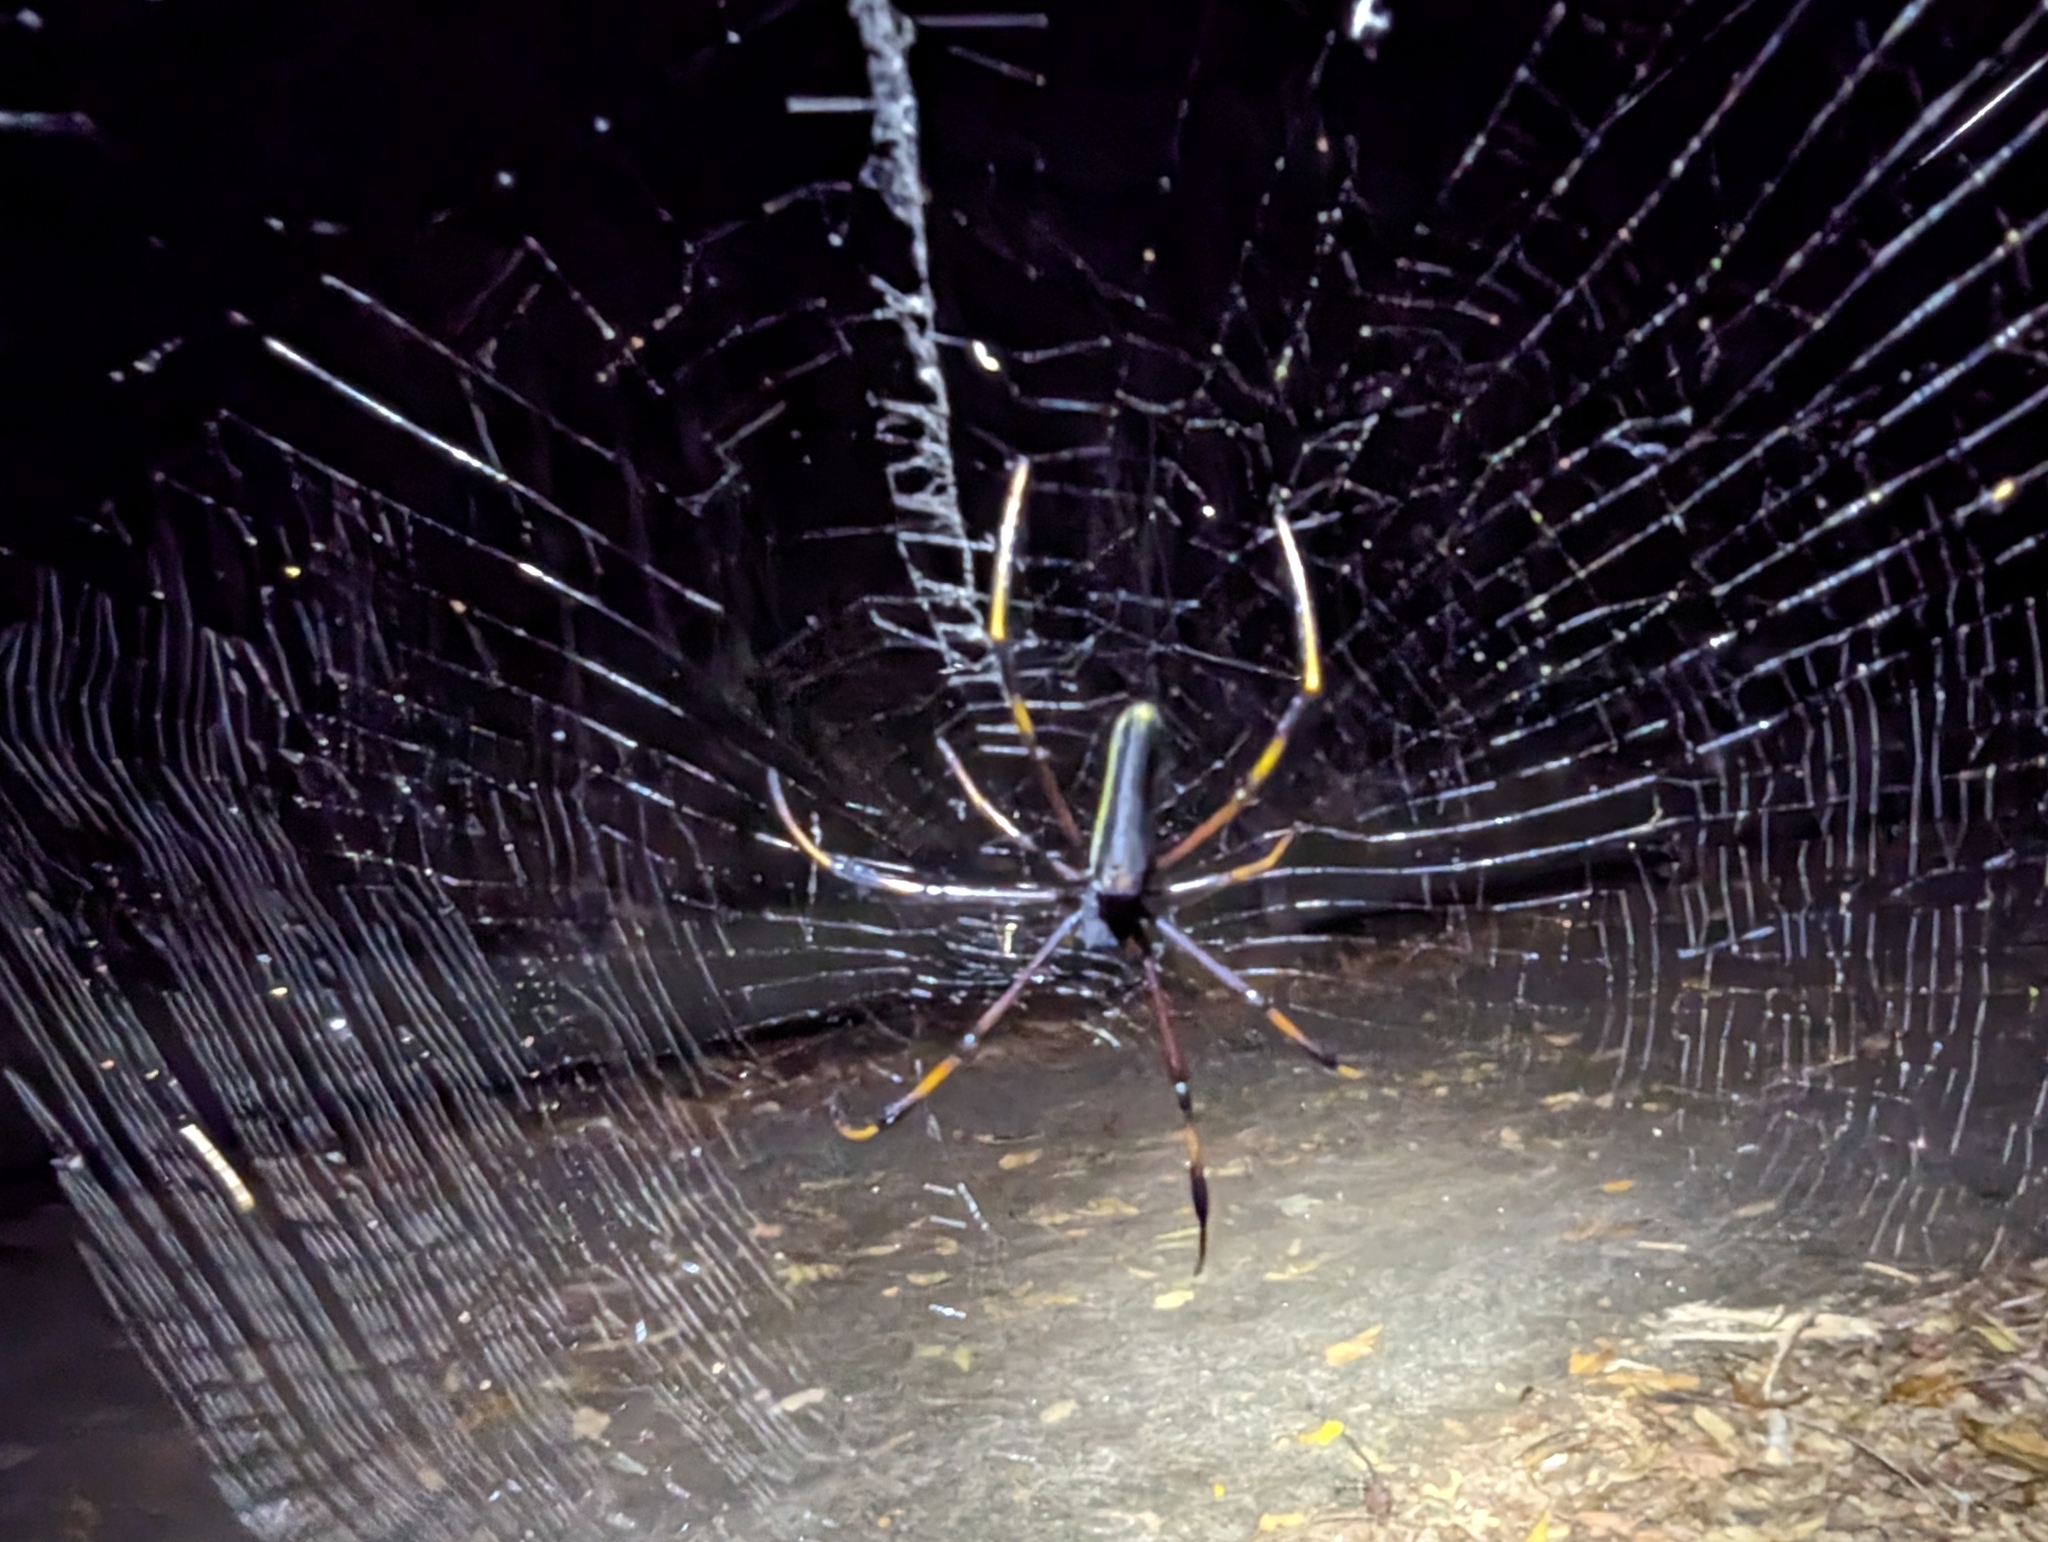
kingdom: Animalia
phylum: Arthropoda
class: Arachnida
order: Araneae
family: Araneidae
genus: Nephila
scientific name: Nephila pilipes
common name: Giant golden orb weaver
